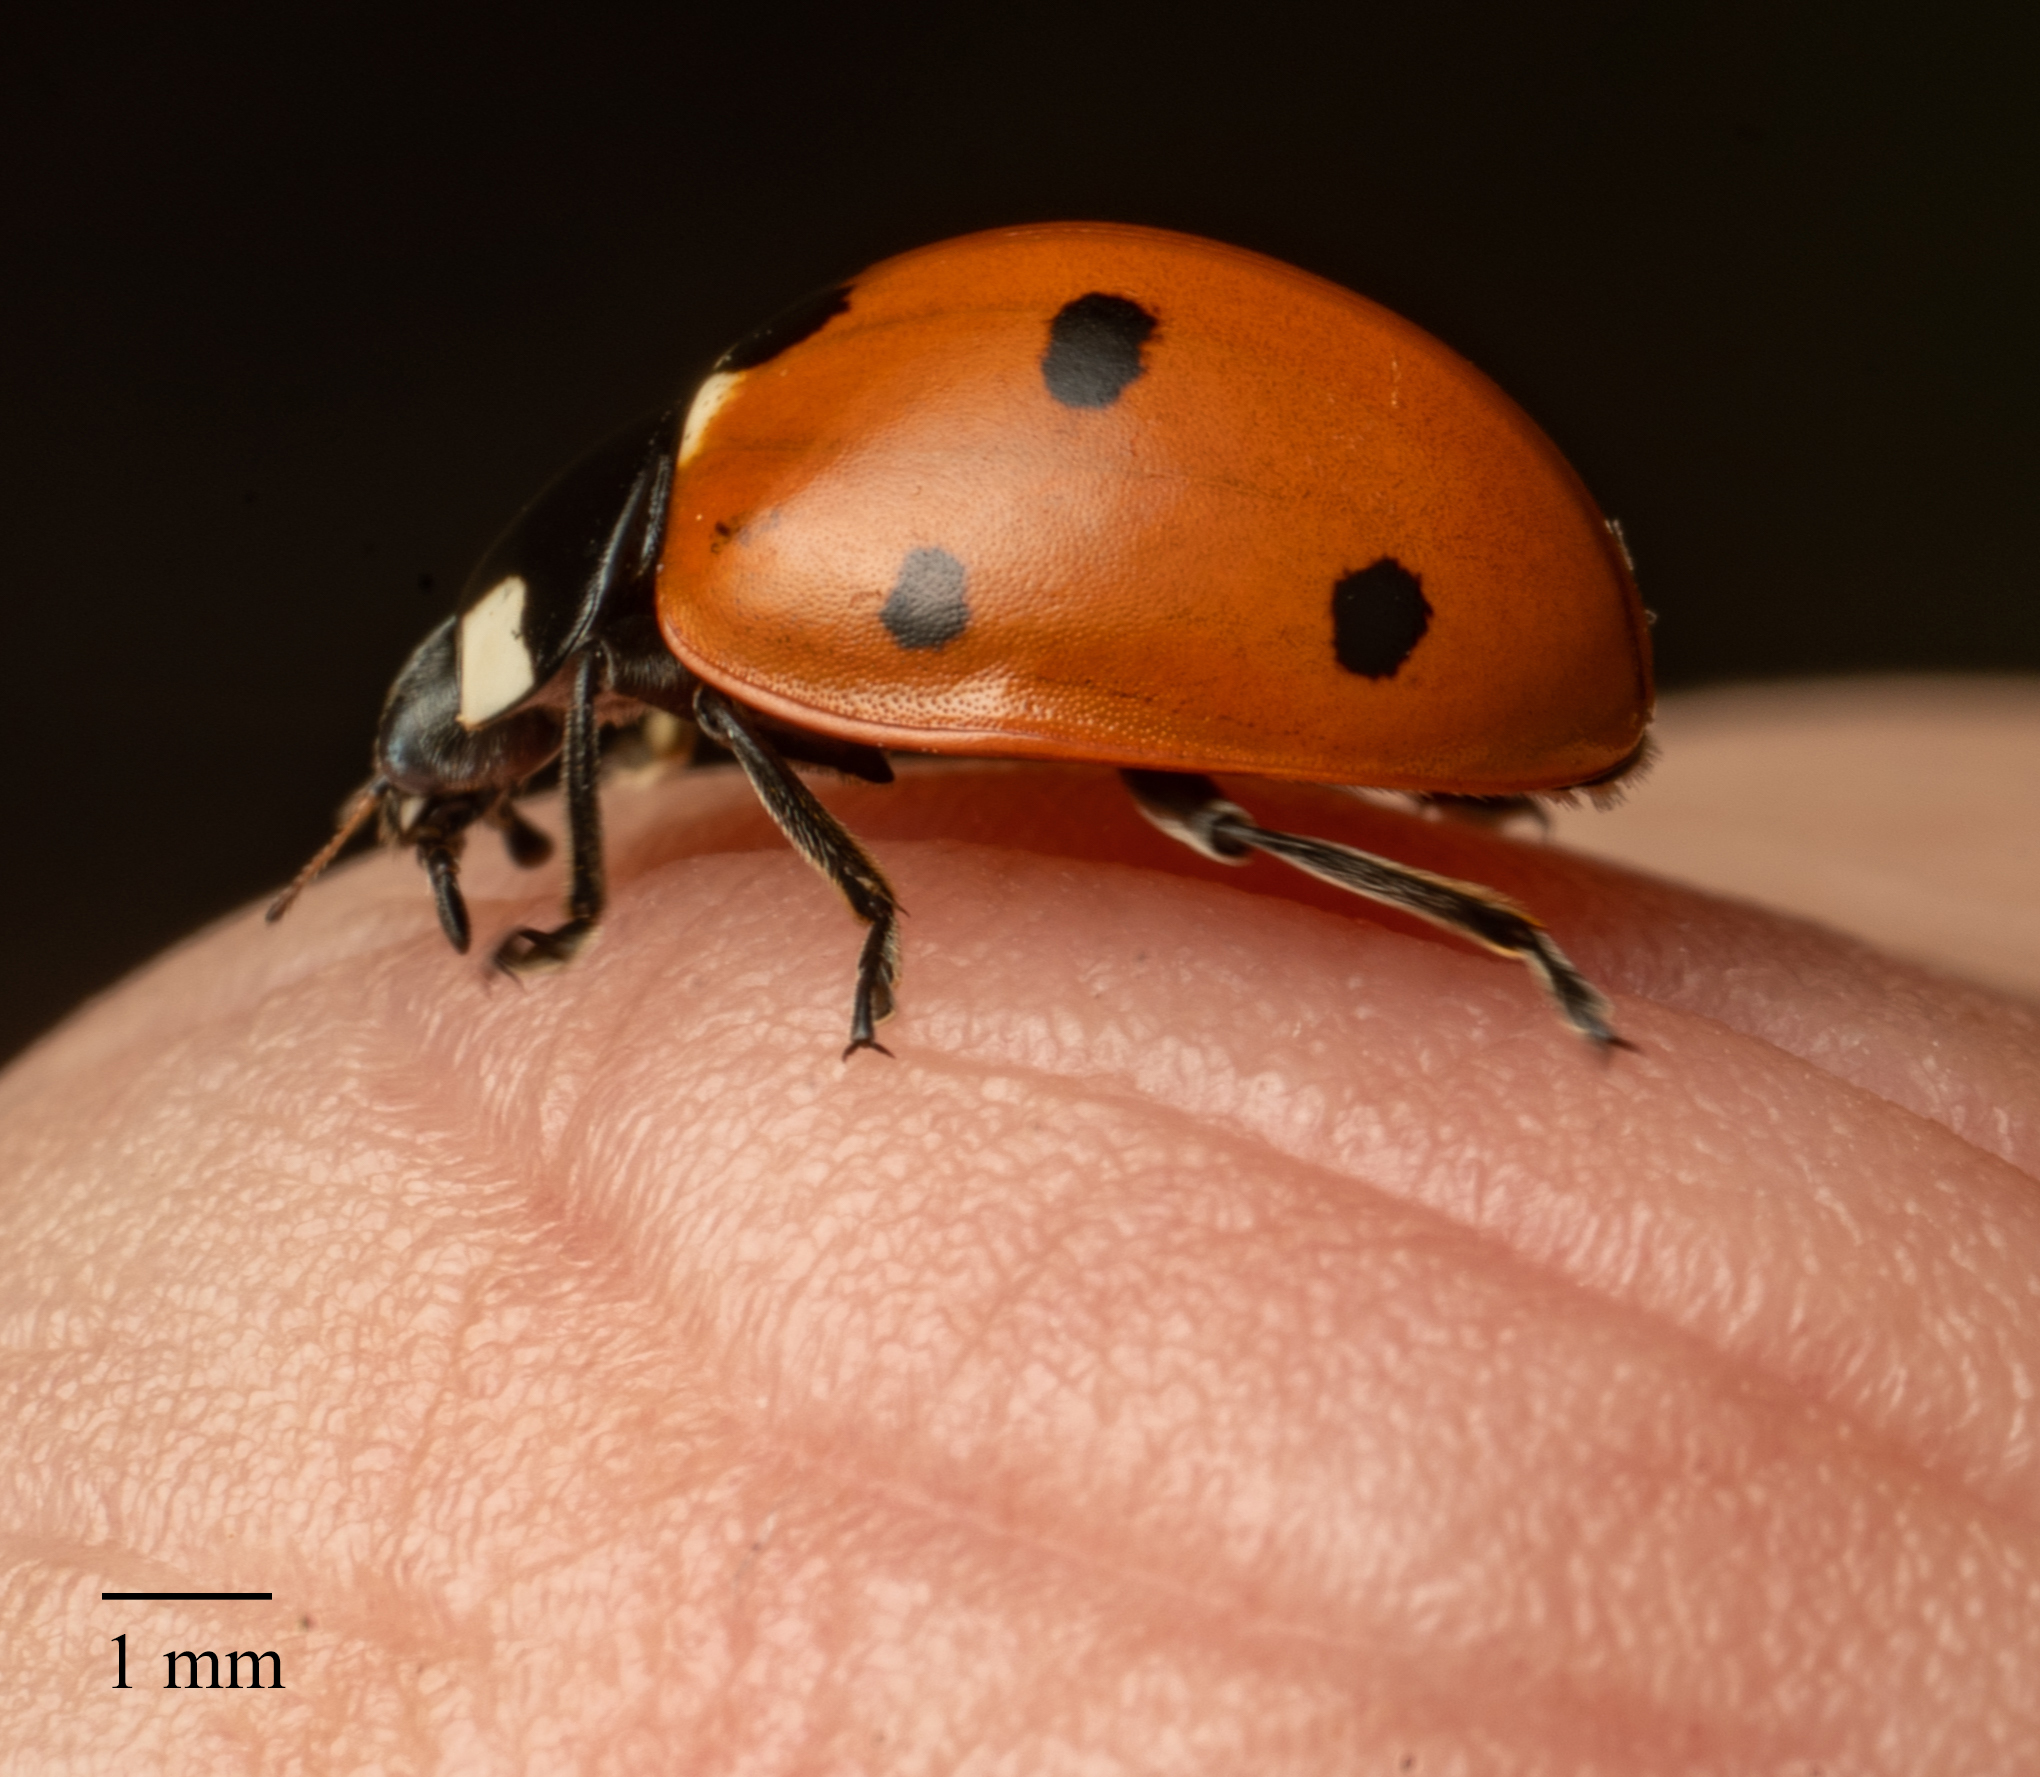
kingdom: Animalia
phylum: Arthropoda
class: Insecta
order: Coleoptera
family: Coccinellidae
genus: Coccinella
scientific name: Coccinella septempunctata
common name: Sevenspotted lady beetle
